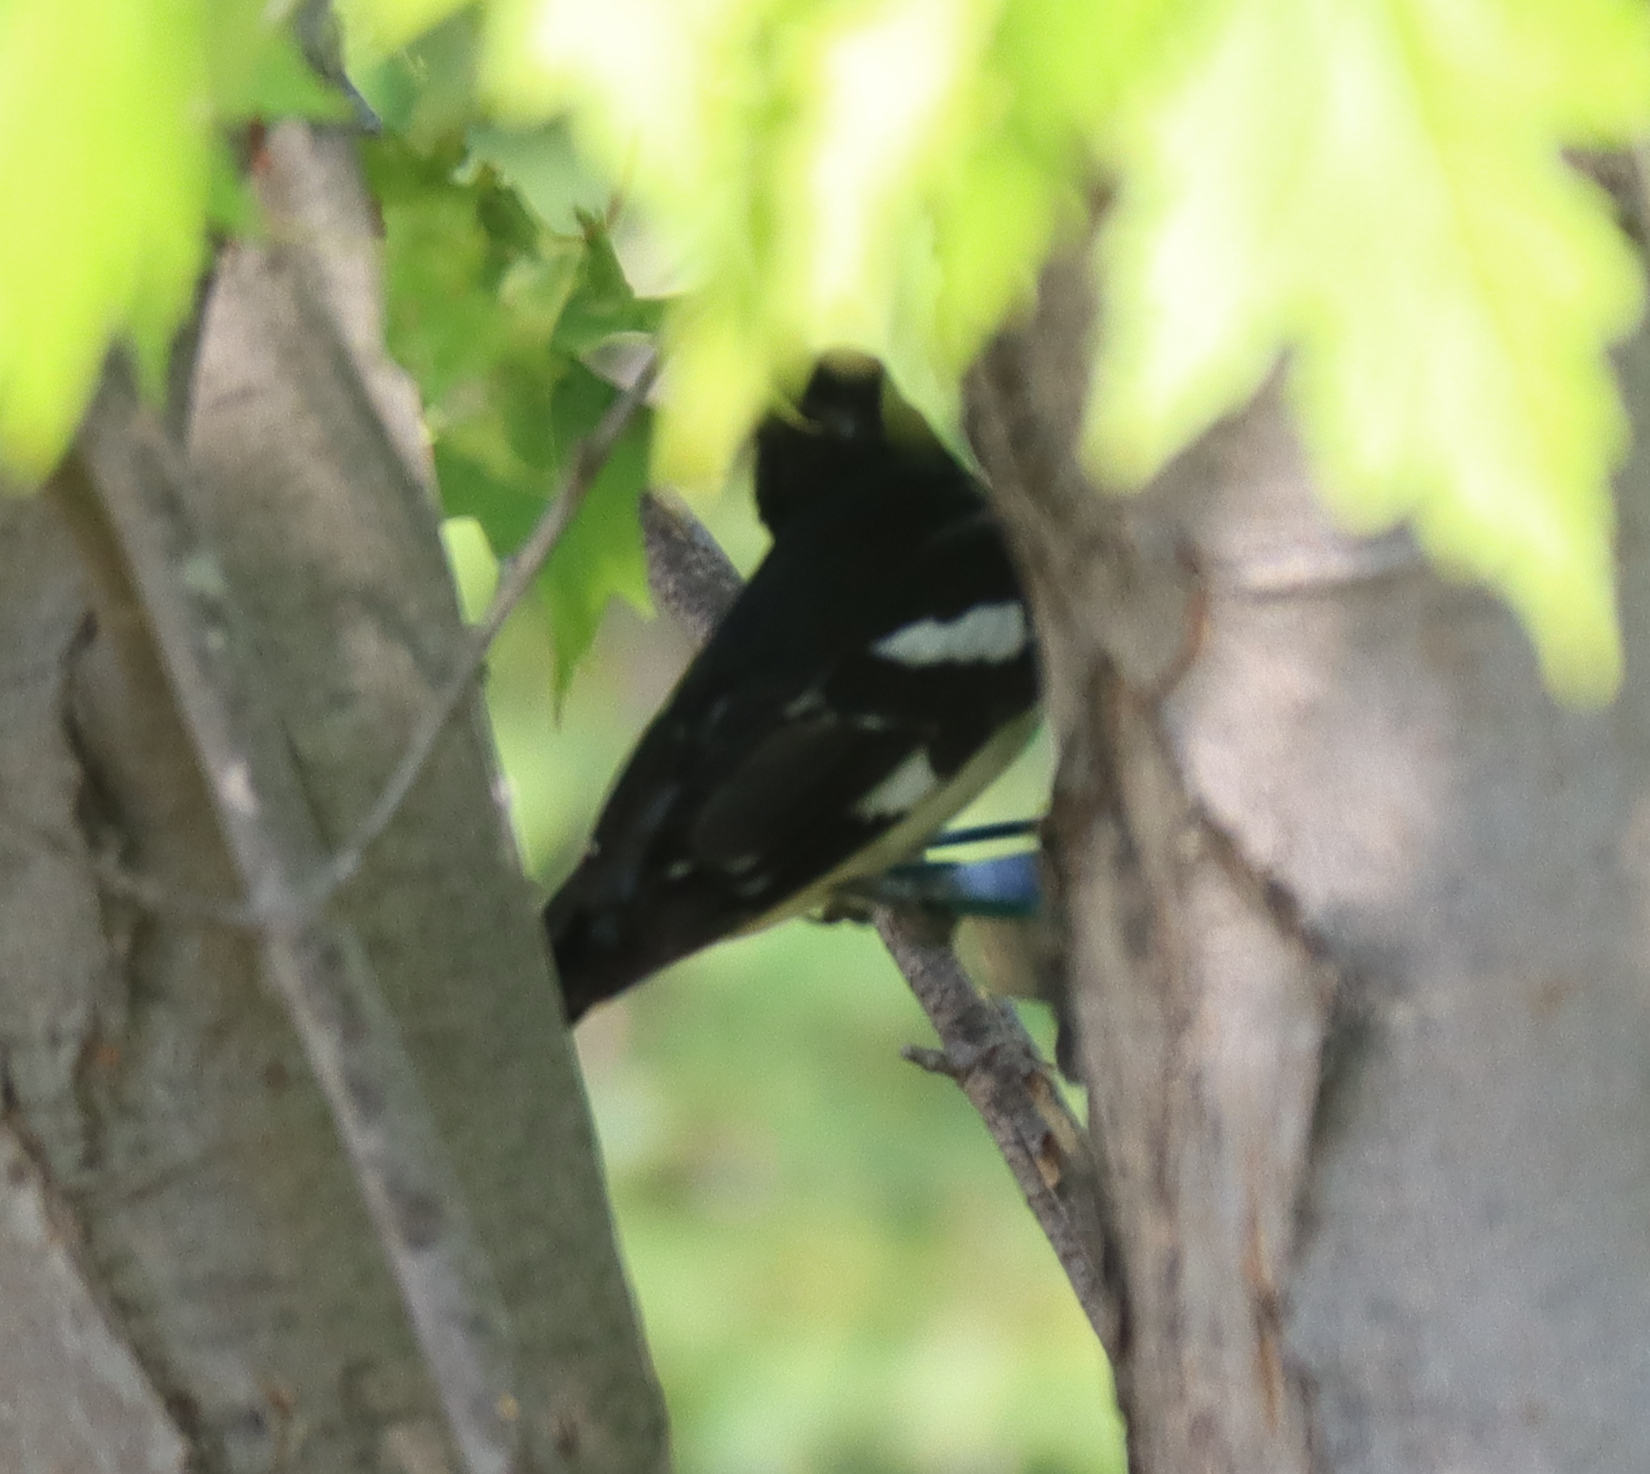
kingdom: Animalia
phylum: Chordata
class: Aves
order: Passeriformes
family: Cardinalidae
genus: Pheucticus
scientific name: Pheucticus ludovicianus
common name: Rose-breasted grosbeak
